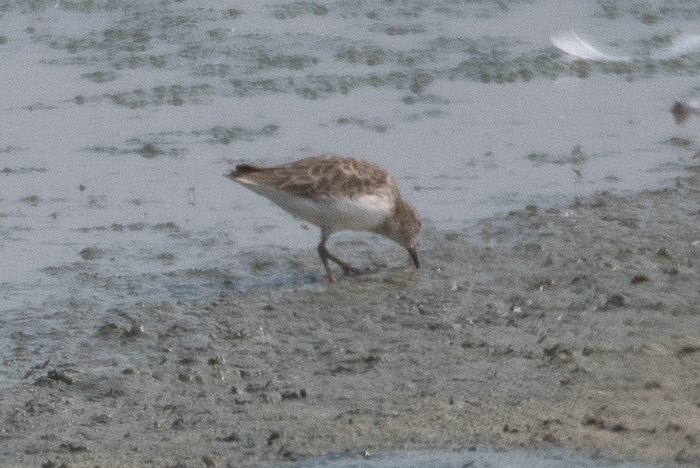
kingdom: Animalia
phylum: Chordata
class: Aves
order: Charadriiformes
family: Scolopacidae
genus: Calidris
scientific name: Calidris minutilla
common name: Least sandpiper
